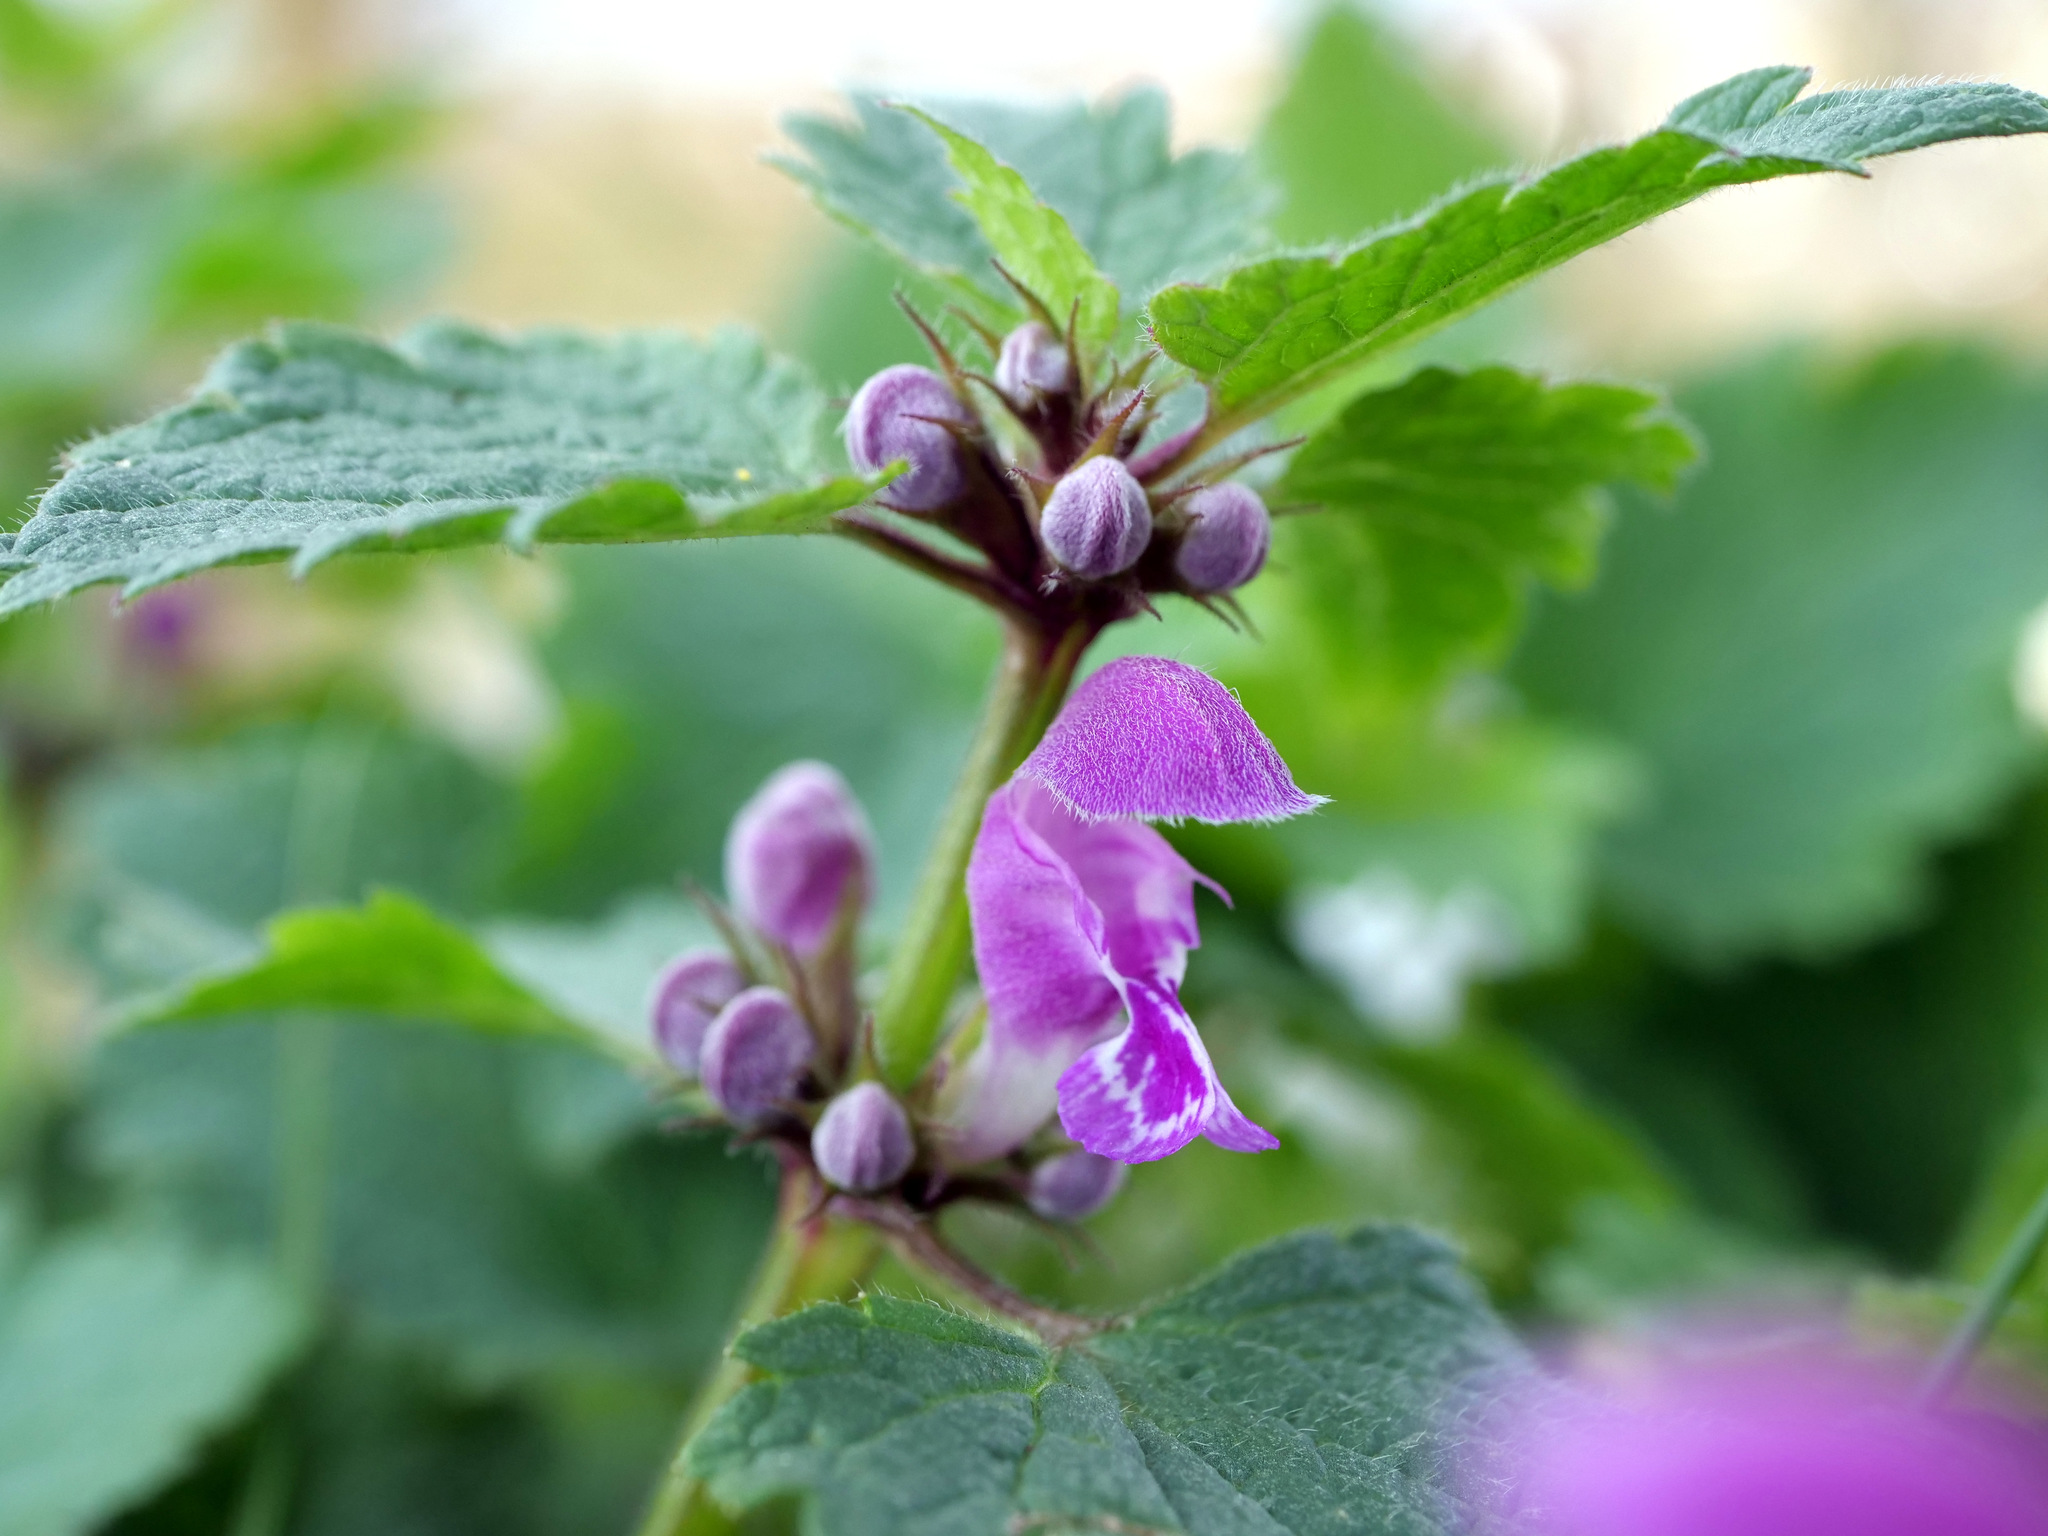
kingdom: Plantae
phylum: Tracheophyta
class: Magnoliopsida
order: Lamiales
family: Lamiaceae
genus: Lamium
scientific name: Lamium maculatum
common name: Spotted dead-nettle
